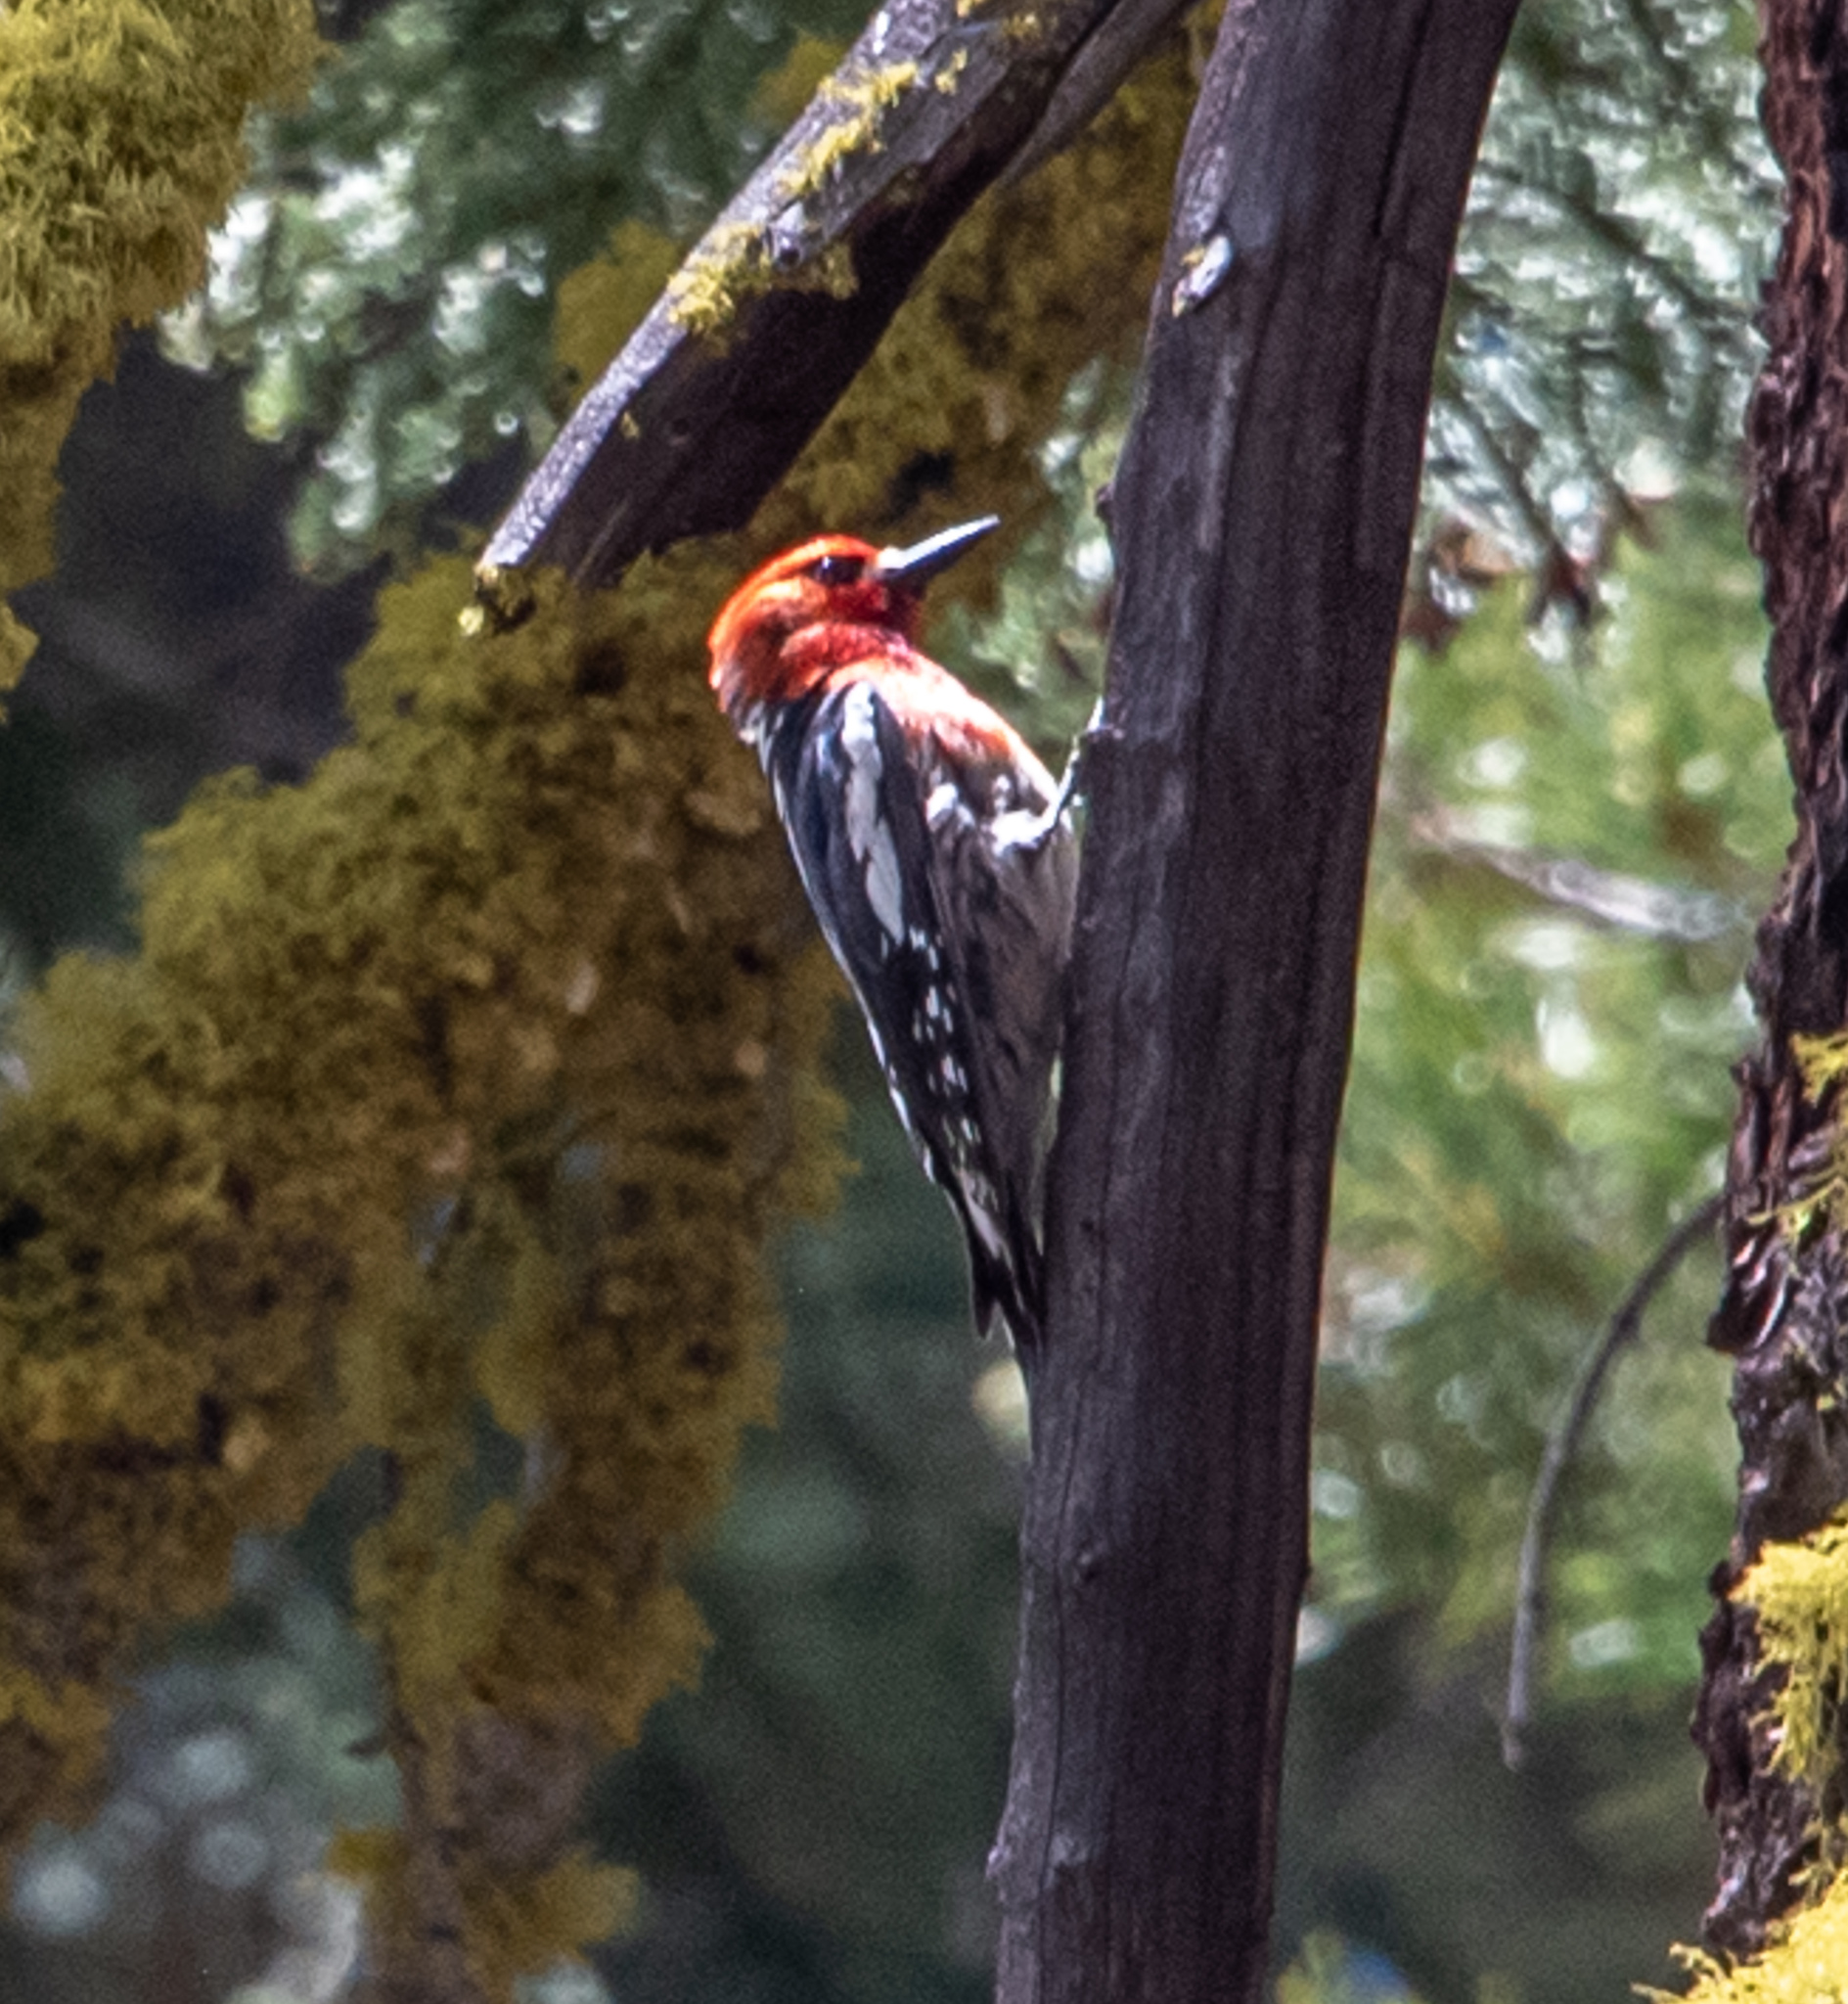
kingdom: Animalia
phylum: Chordata
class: Aves
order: Piciformes
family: Picidae
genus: Sphyrapicus
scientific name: Sphyrapicus ruber
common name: Red-breasted sapsucker
